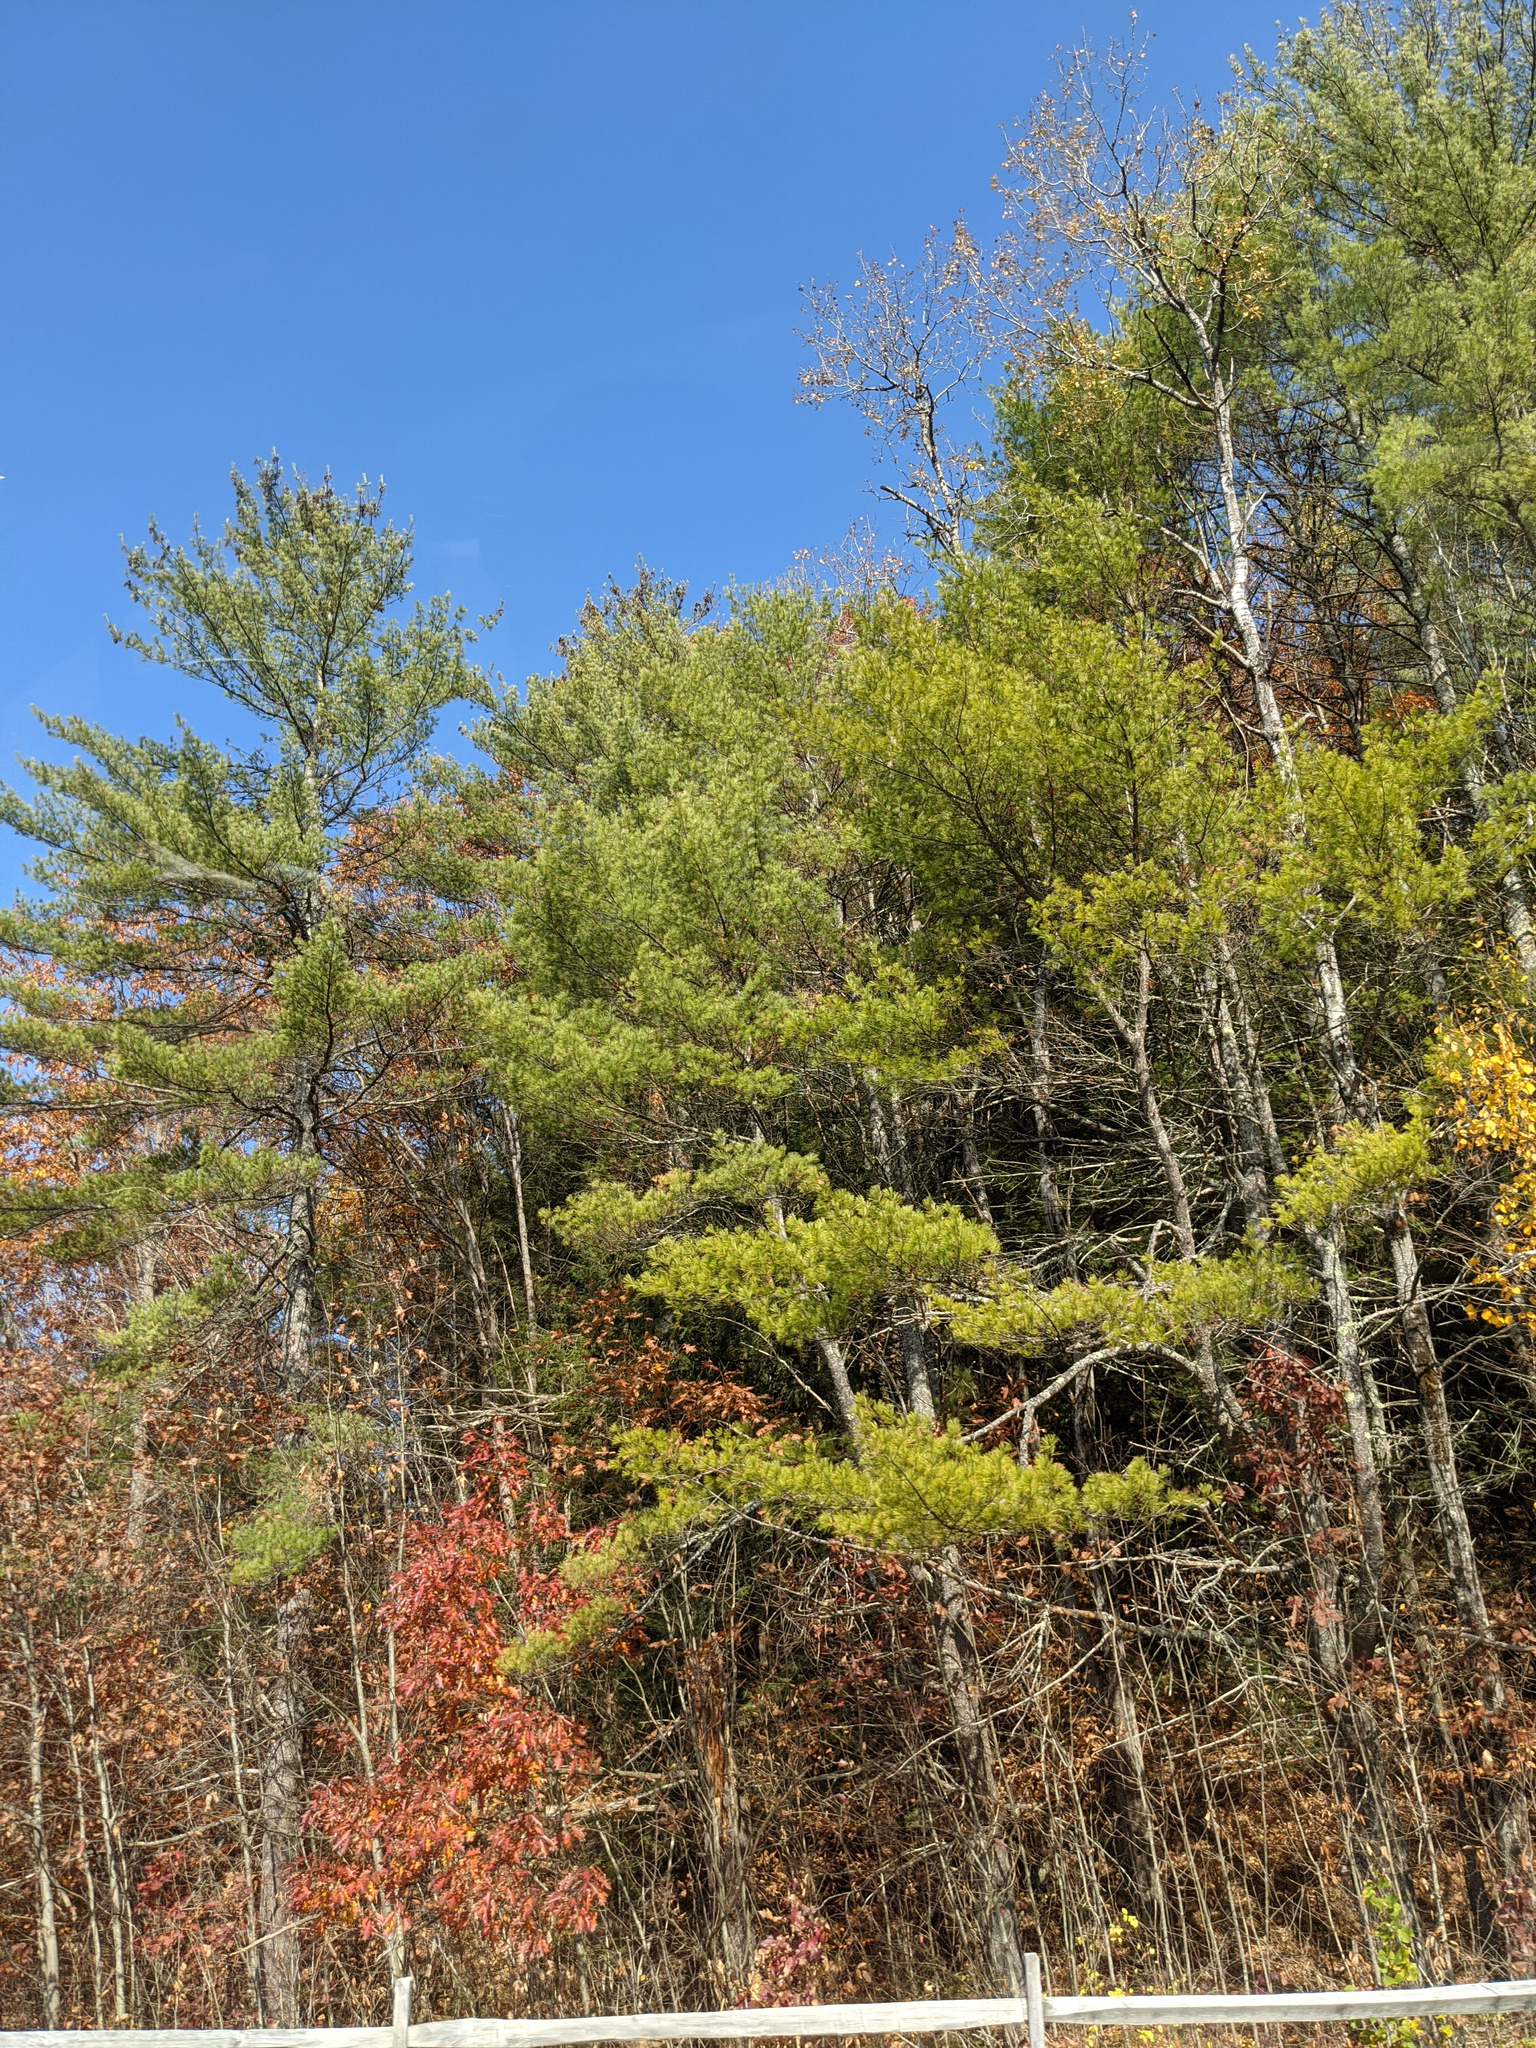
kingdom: Plantae
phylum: Tracheophyta
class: Pinopsida
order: Pinales
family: Pinaceae
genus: Pinus
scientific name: Pinus strobus
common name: Weymouth pine
